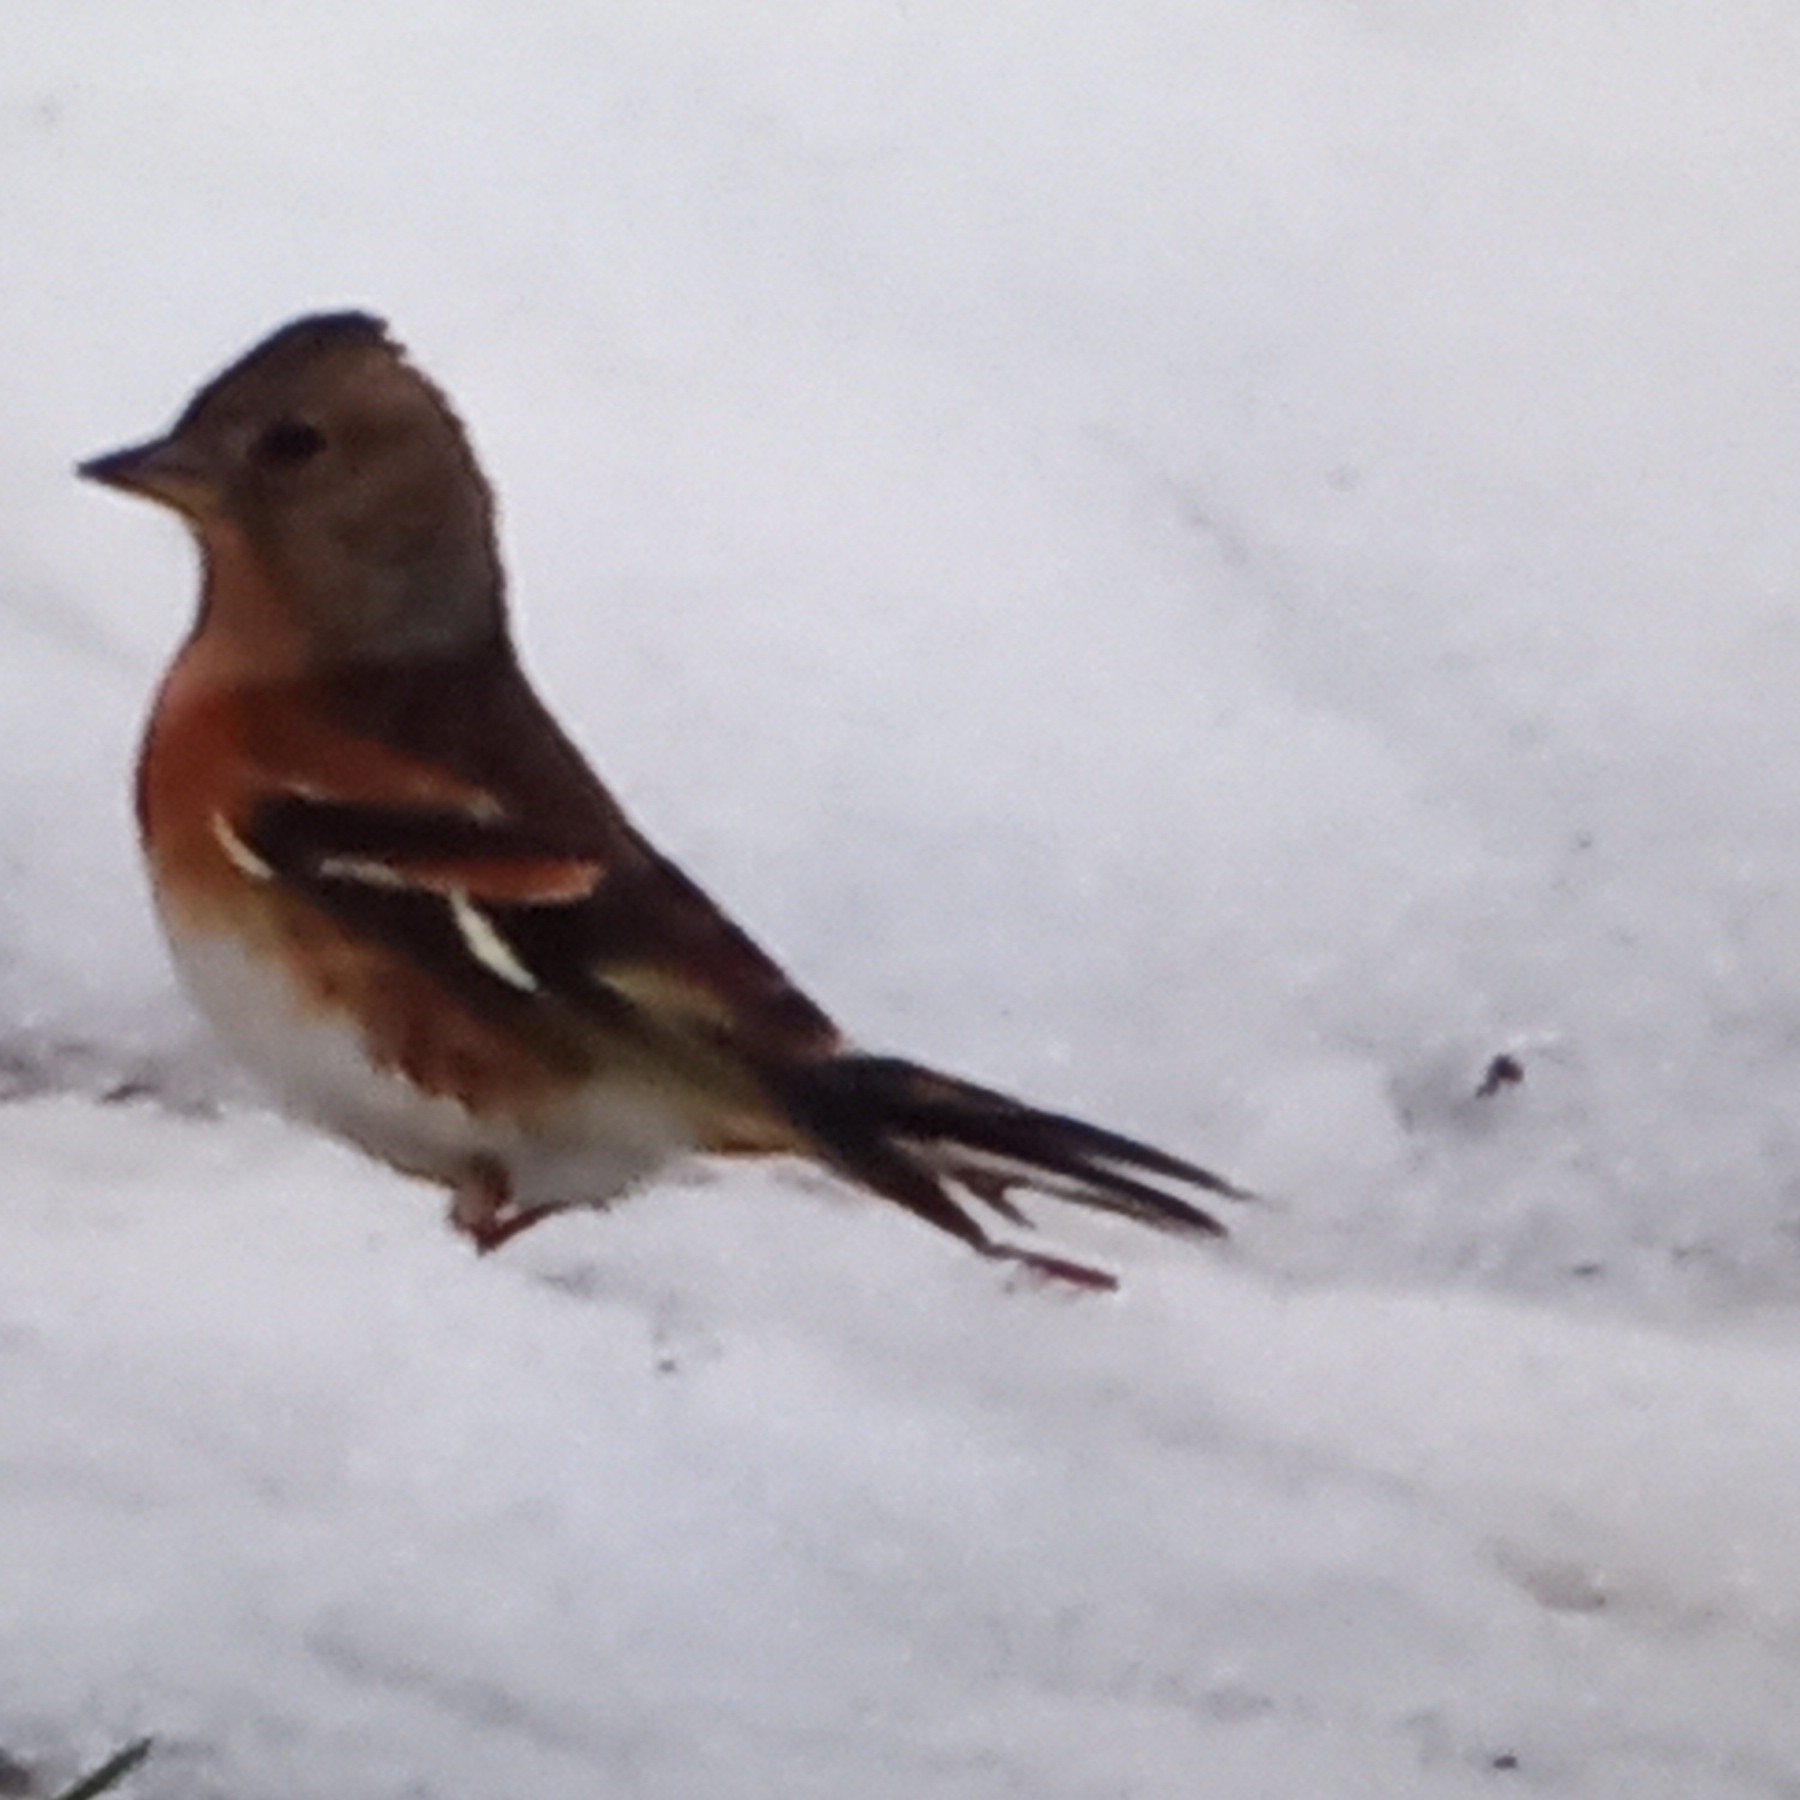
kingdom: Animalia
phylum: Chordata
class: Aves
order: Passeriformes
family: Fringillidae
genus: Fringilla
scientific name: Fringilla montifringilla
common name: Brambling
